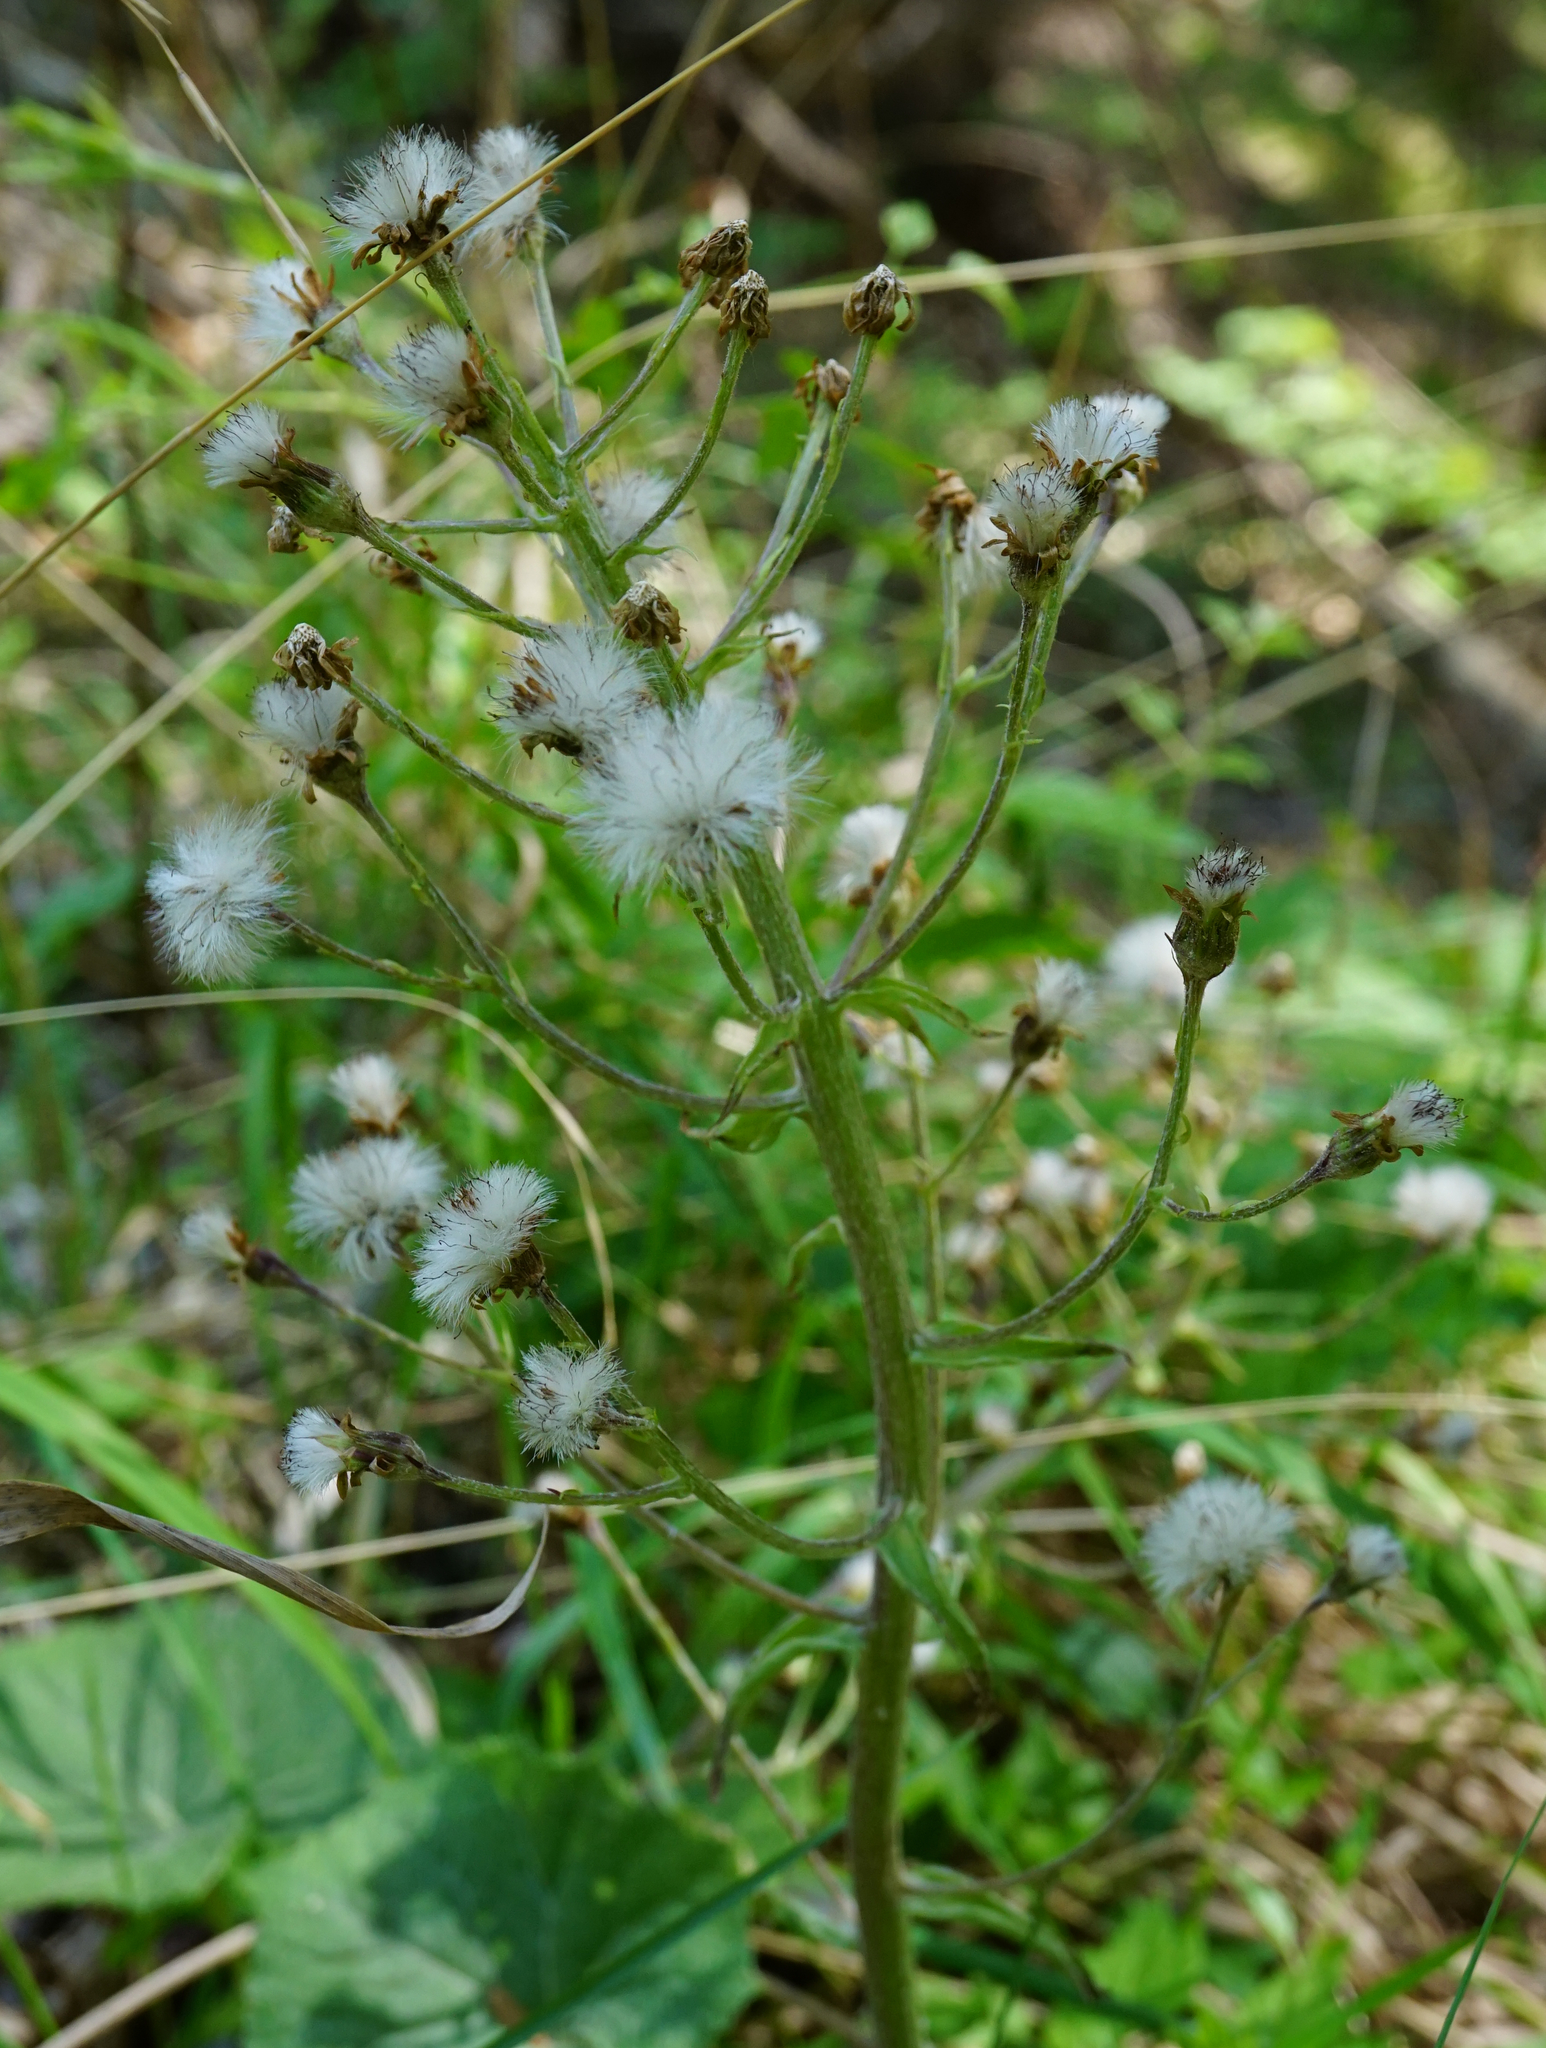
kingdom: Plantae
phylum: Tracheophyta
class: Magnoliopsida
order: Asterales
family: Asteraceae
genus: Petasites
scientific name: Petasites albus
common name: White butterbur
